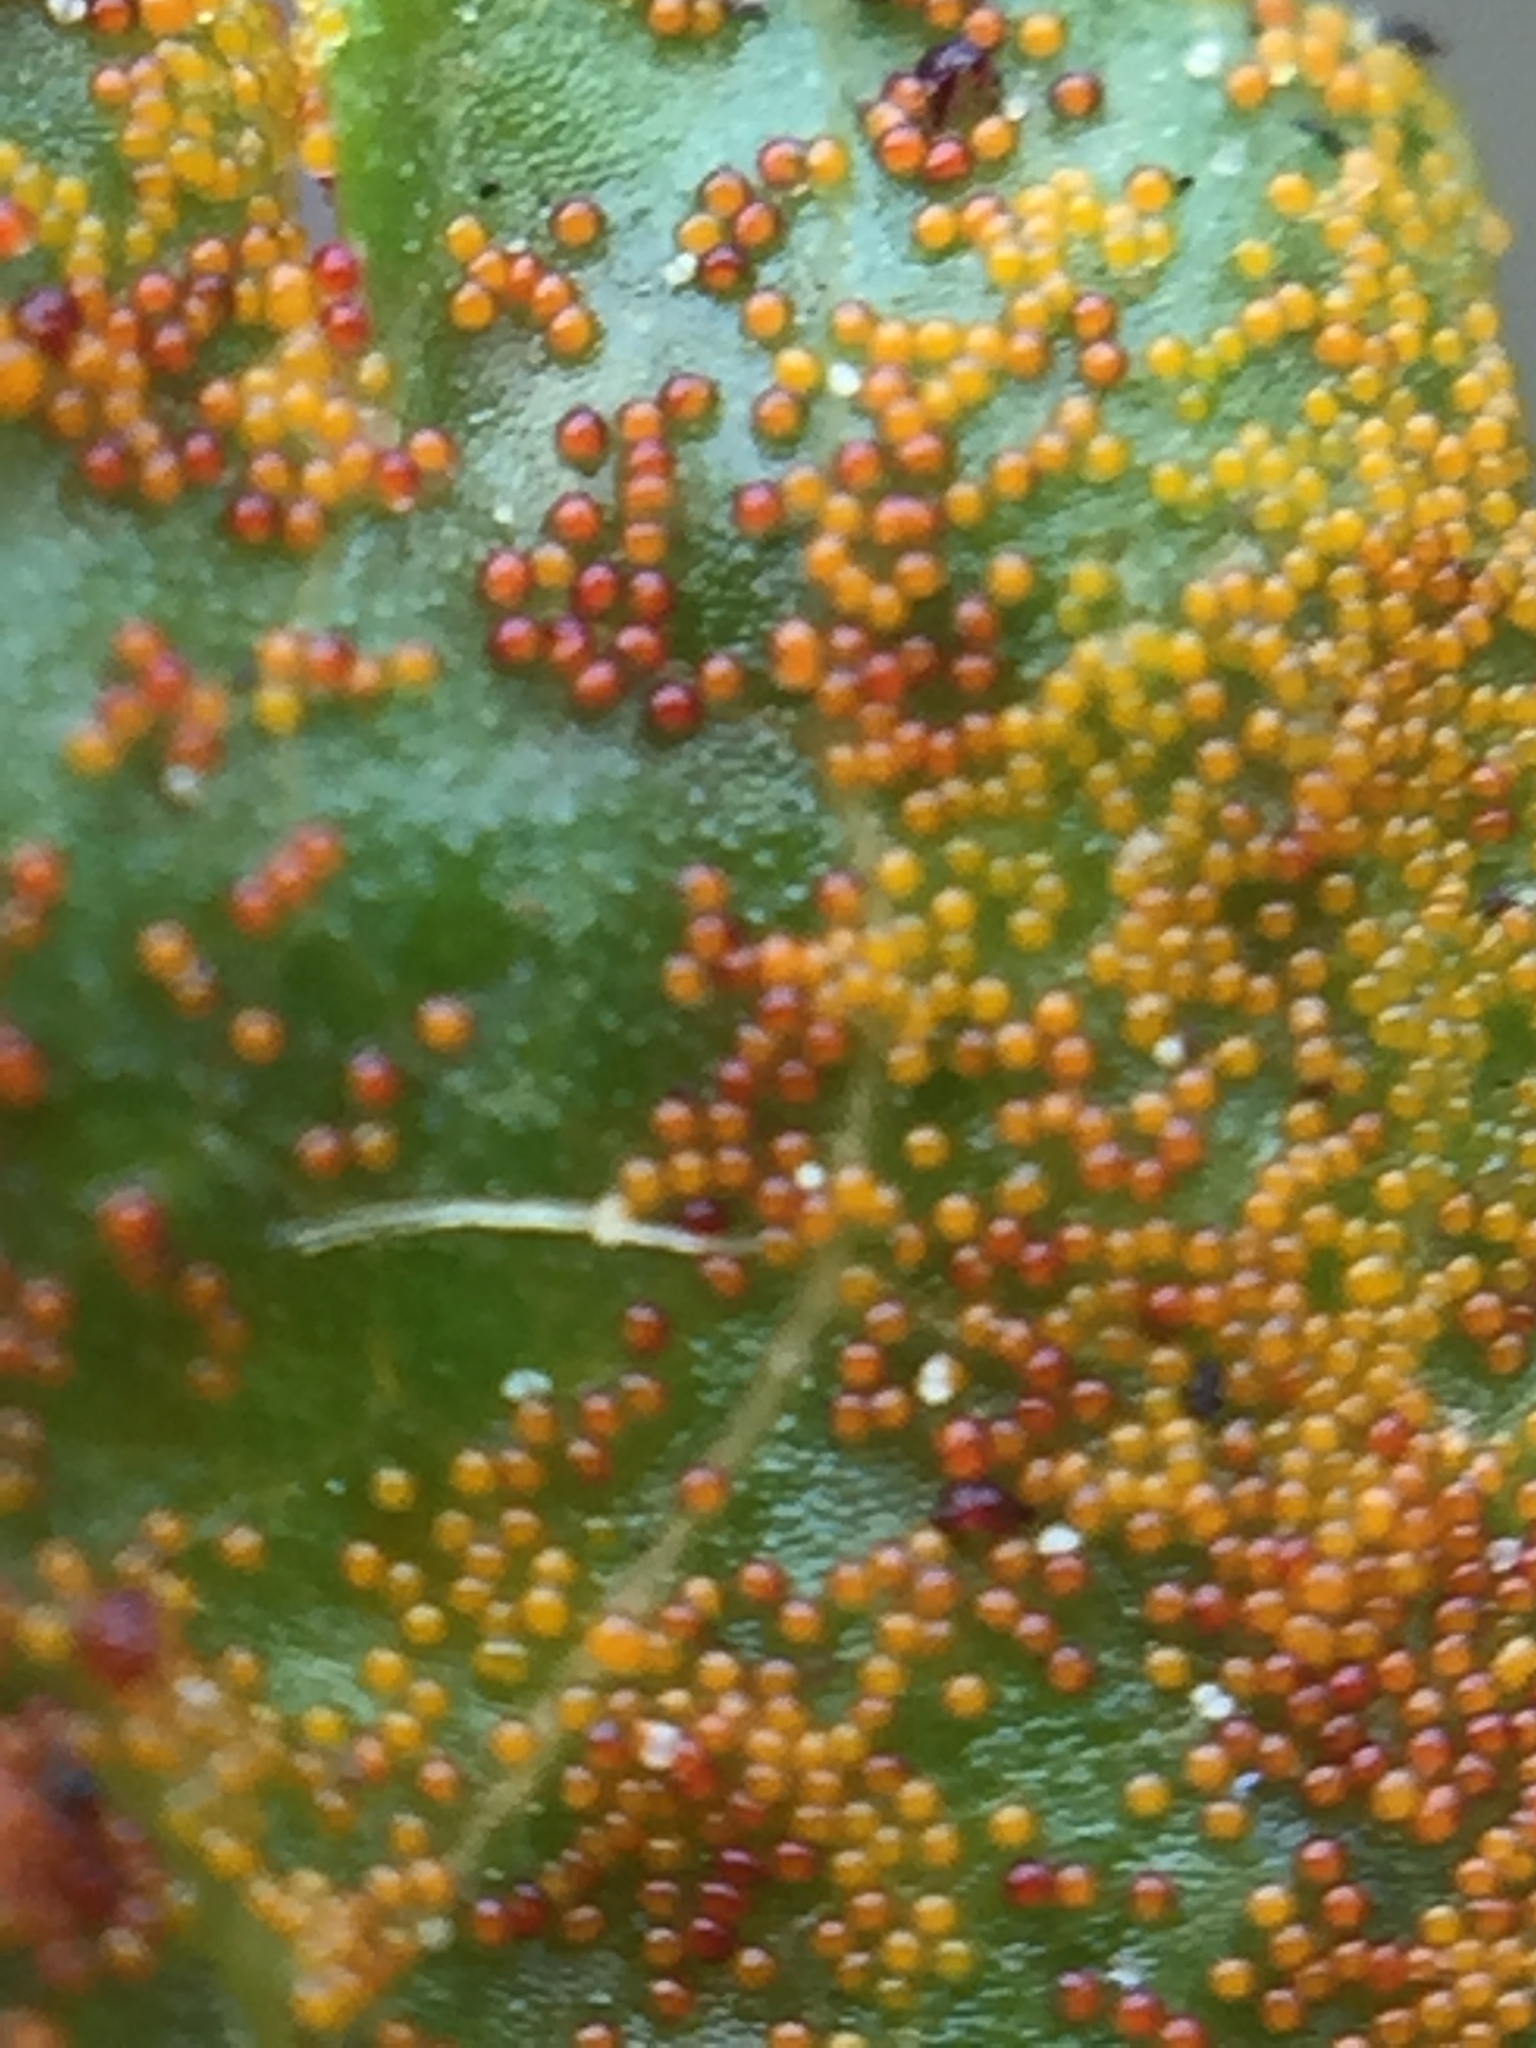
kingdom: Fungi
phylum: Chytridiomycota
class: Chytridiomycetes
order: Chytridiales
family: Synchytriaceae
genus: Synchytrium
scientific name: Synchytrium australe
